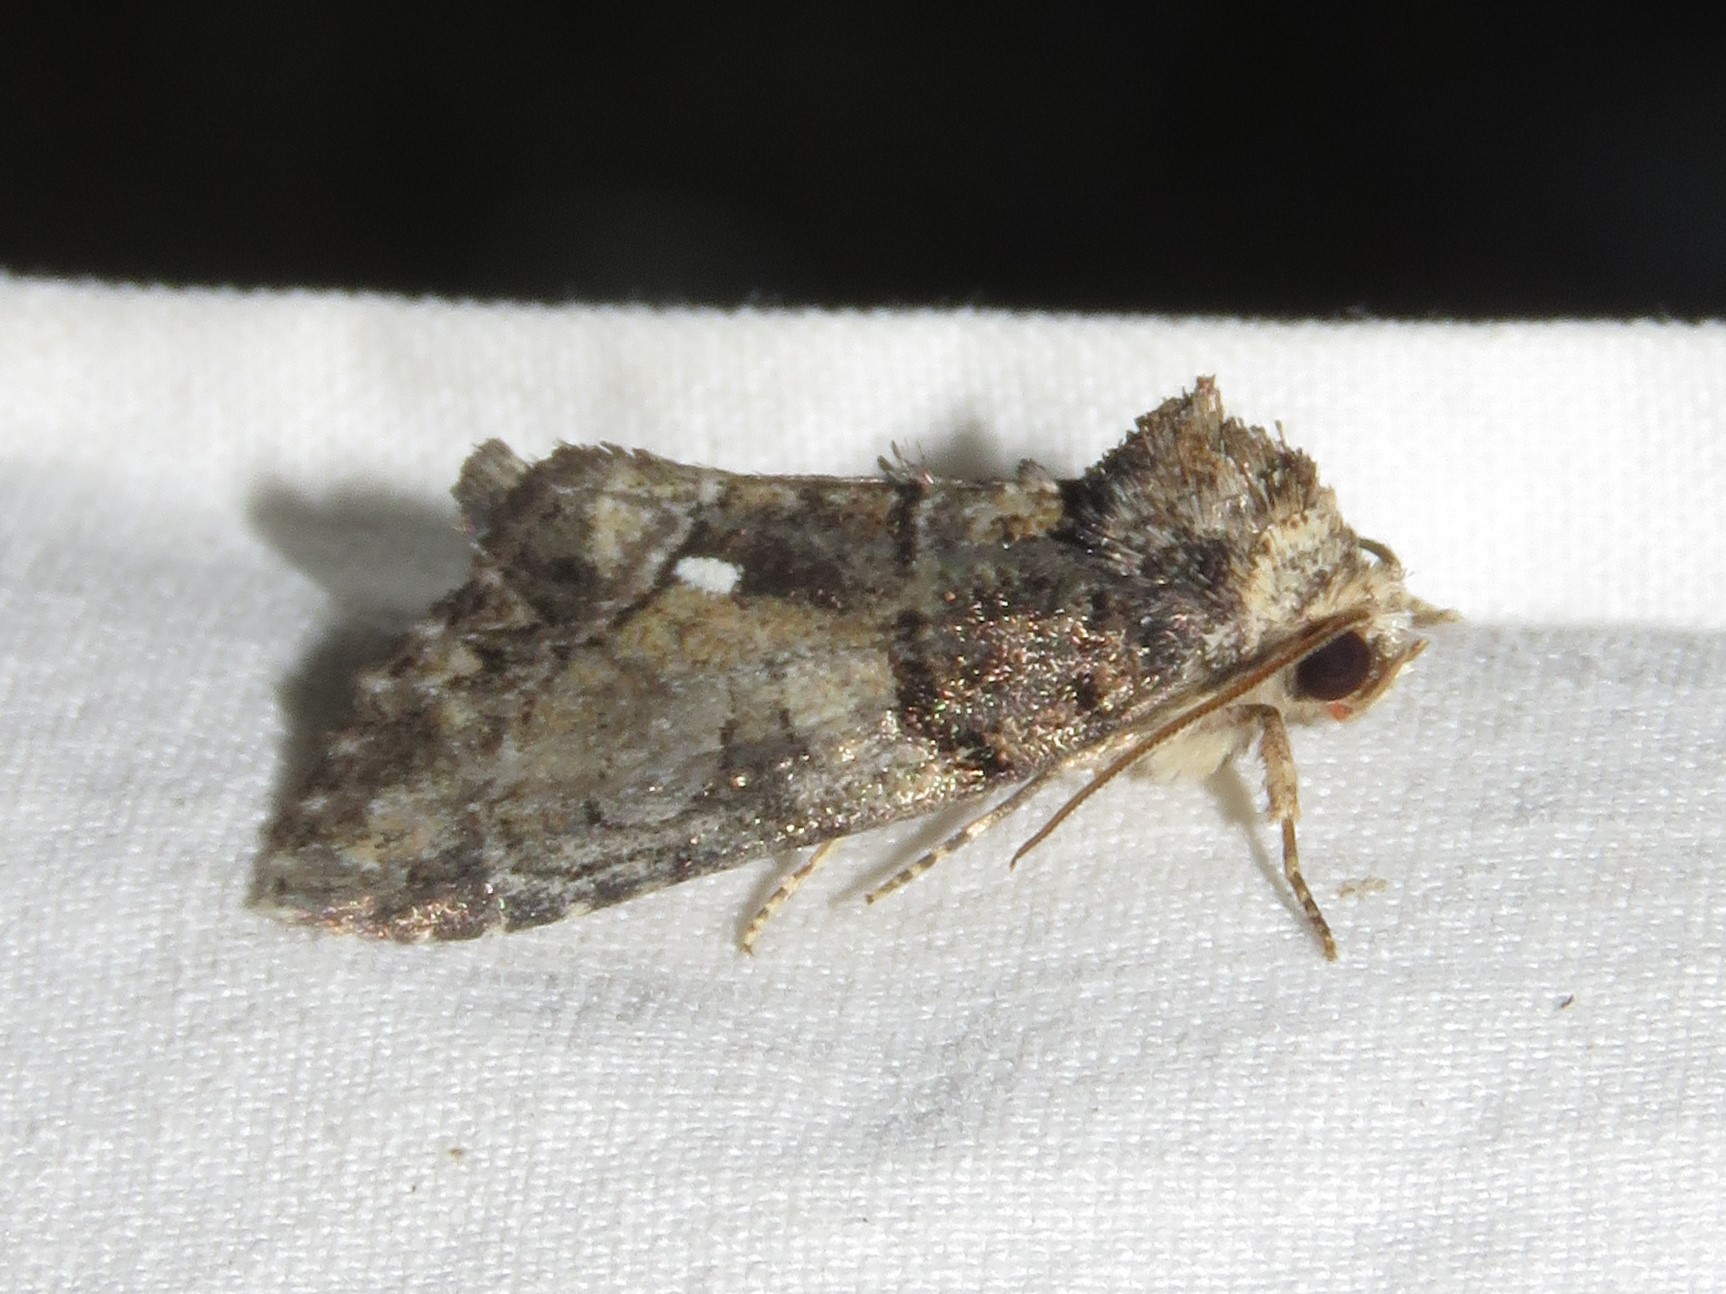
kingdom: Animalia
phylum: Arthropoda
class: Insecta
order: Lepidoptera
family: Noctuidae
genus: Chytonix
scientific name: Chytonix palliatricula
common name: Cloaked marvel
